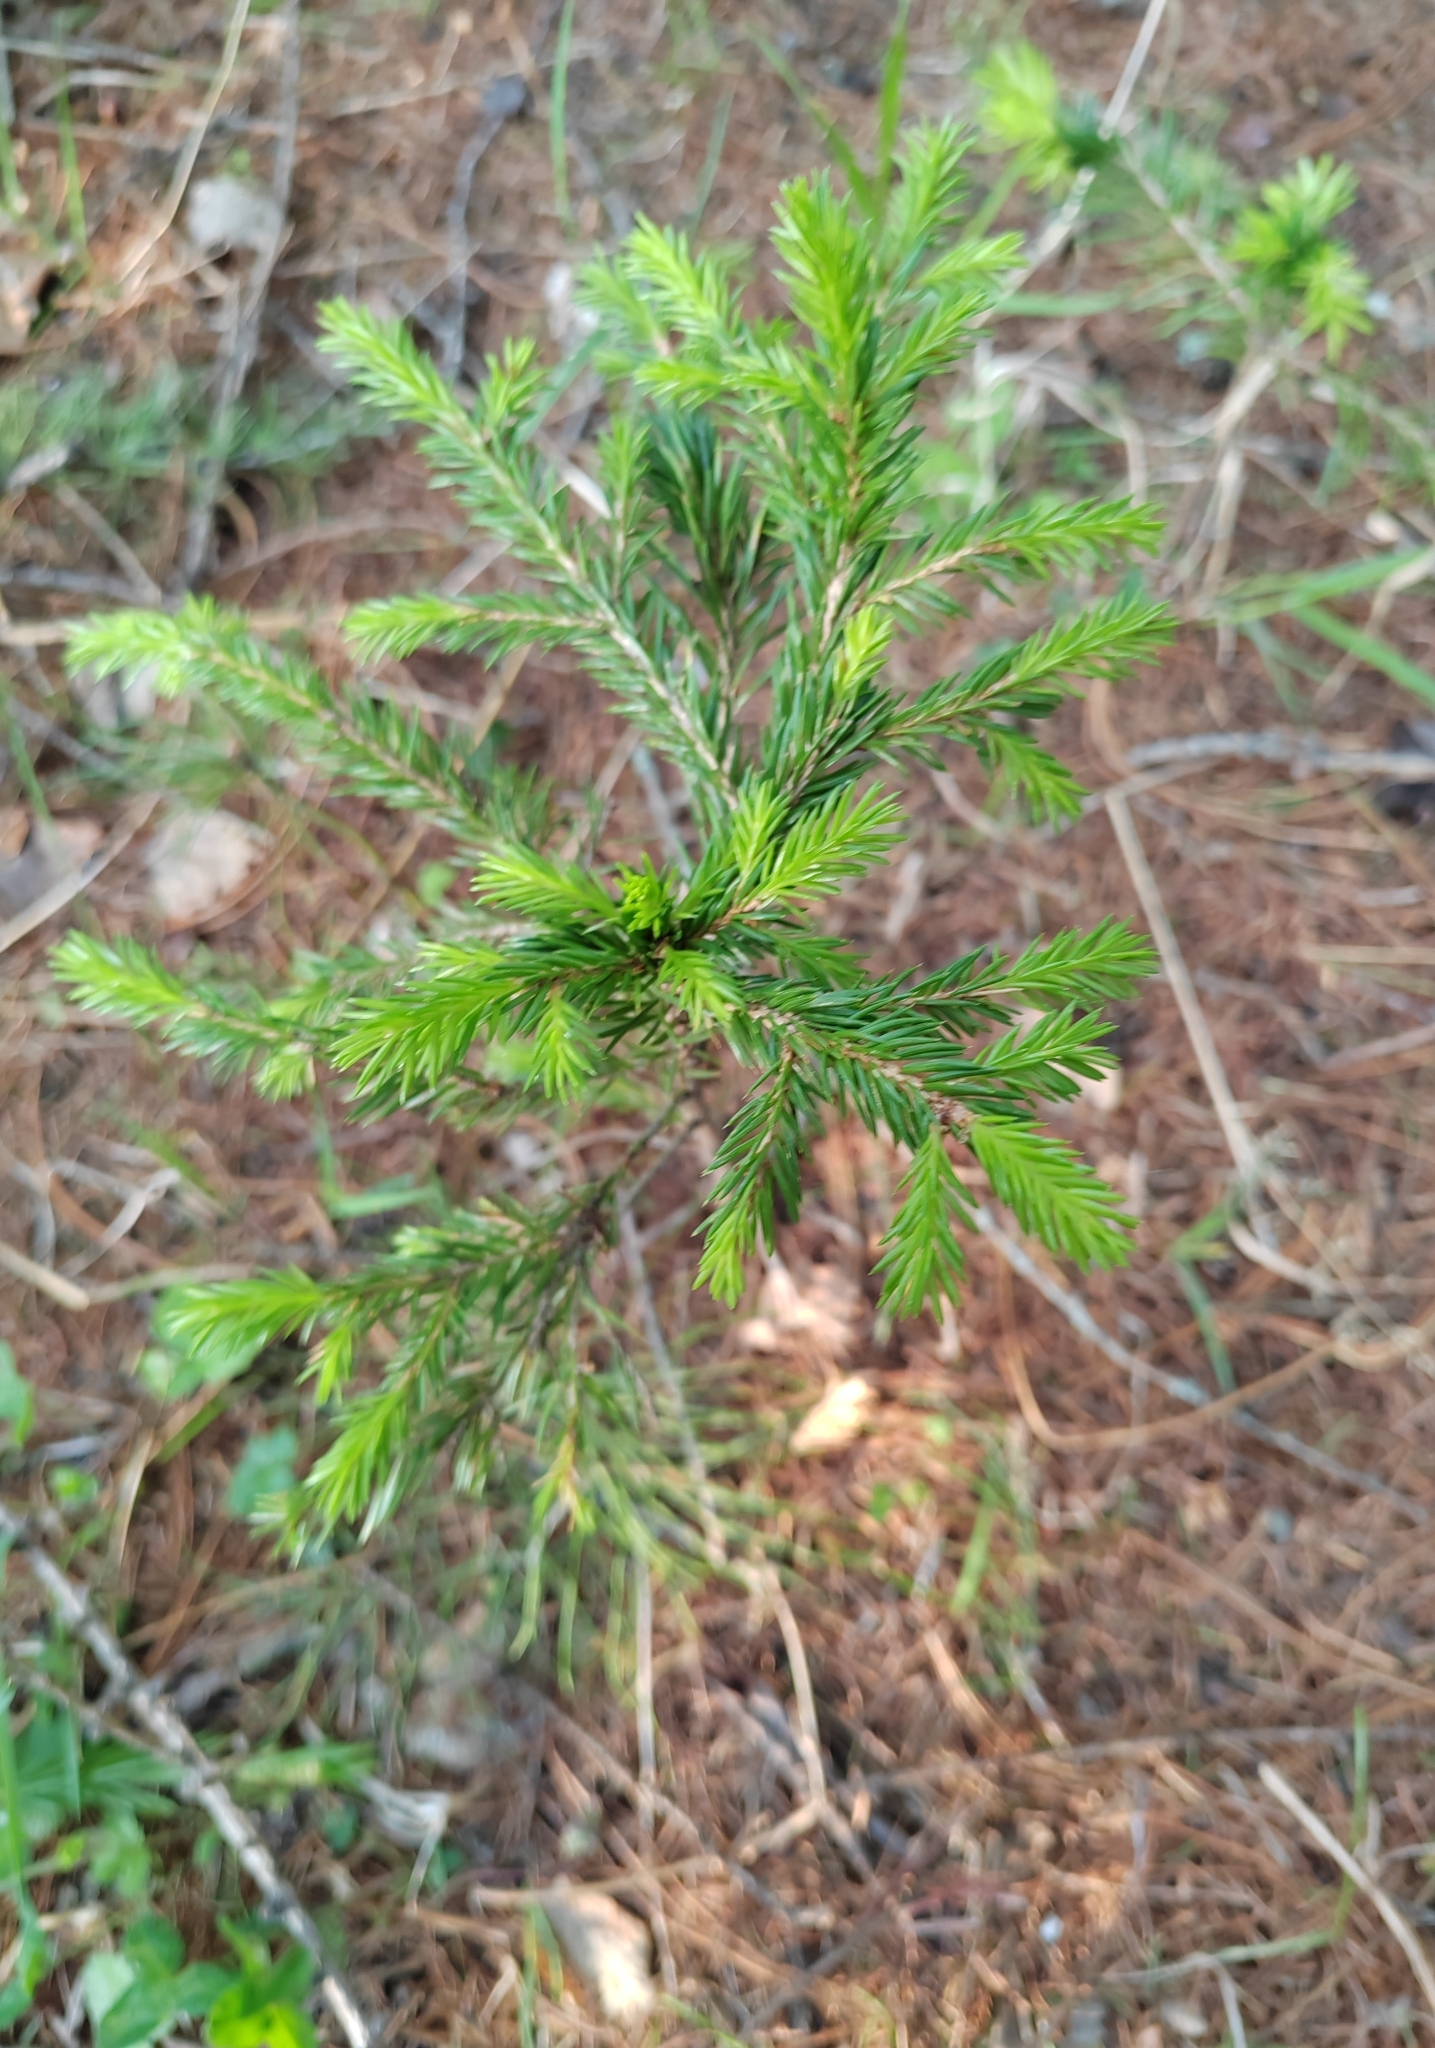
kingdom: Plantae
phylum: Tracheophyta
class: Pinopsida
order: Pinales
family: Pinaceae
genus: Picea
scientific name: Picea obovata
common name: Siberian spruce
